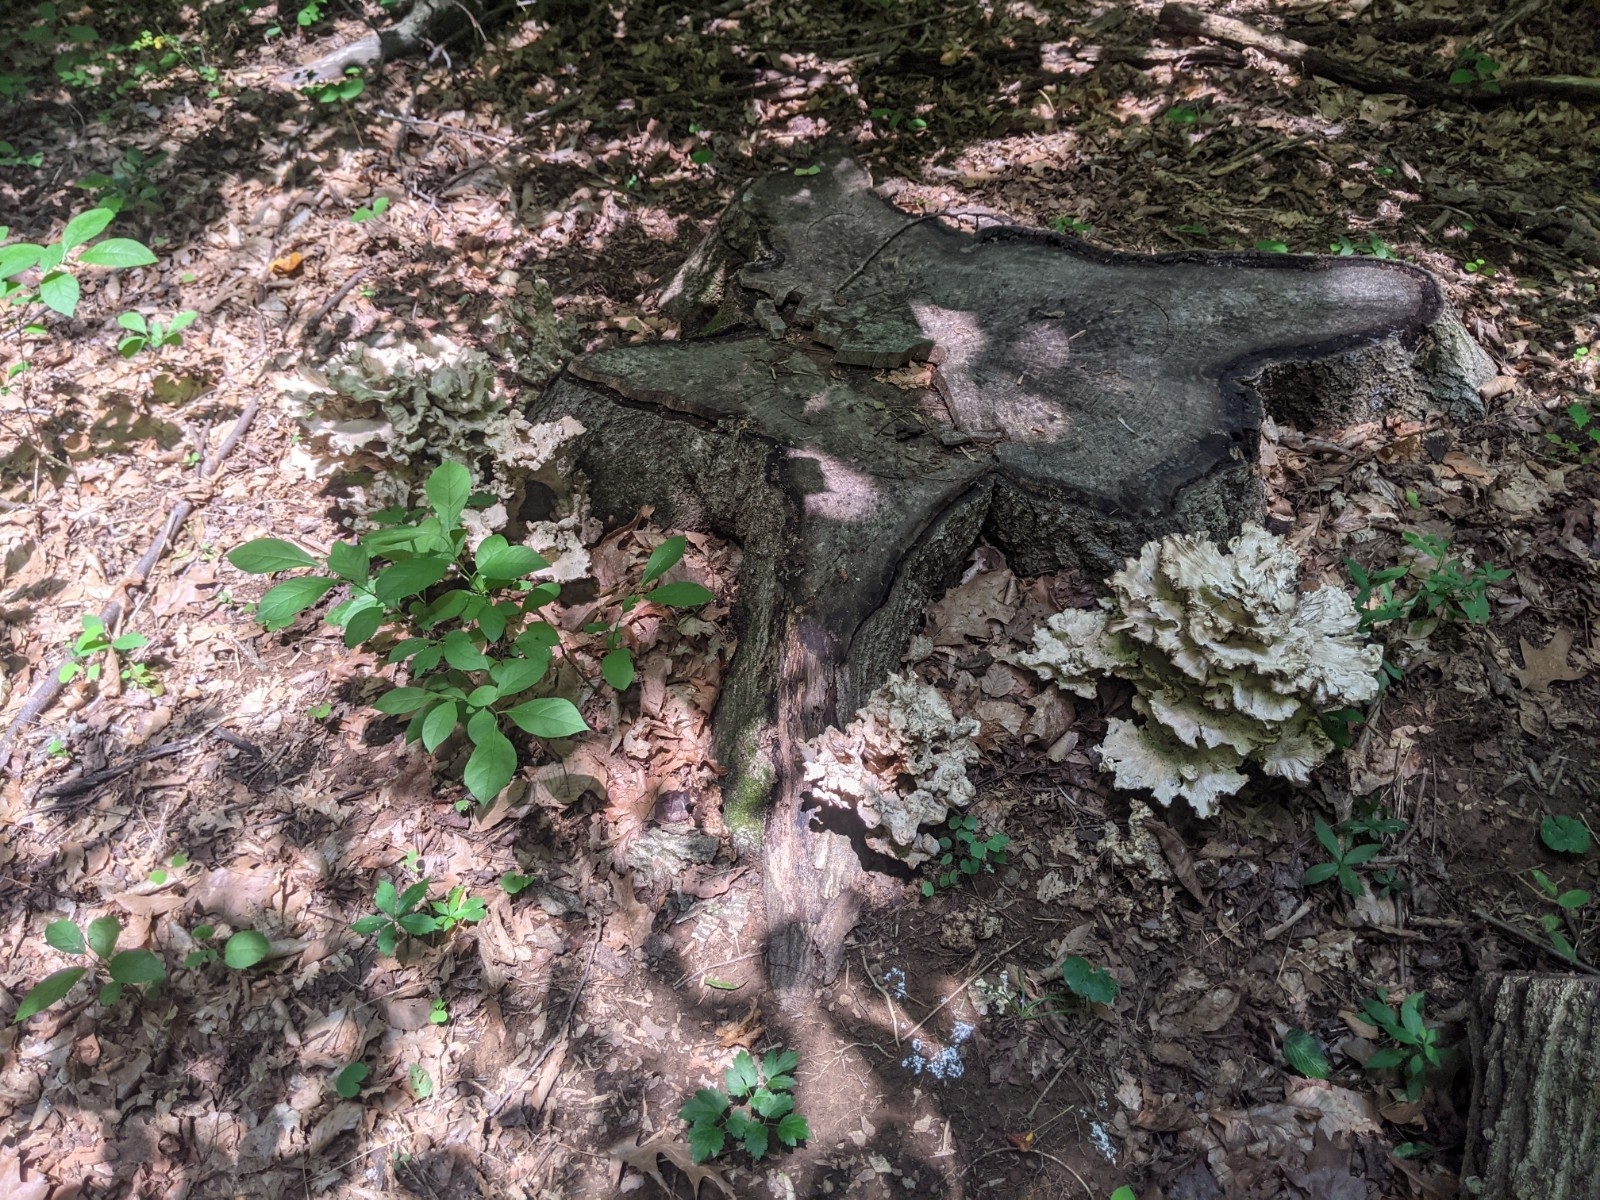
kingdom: Fungi
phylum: Basidiomycota
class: Agaricomycetes
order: Polyporales
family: Meripilaceae
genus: Meripilus
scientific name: Meripilus sumstinei
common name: Black-staining polypore
